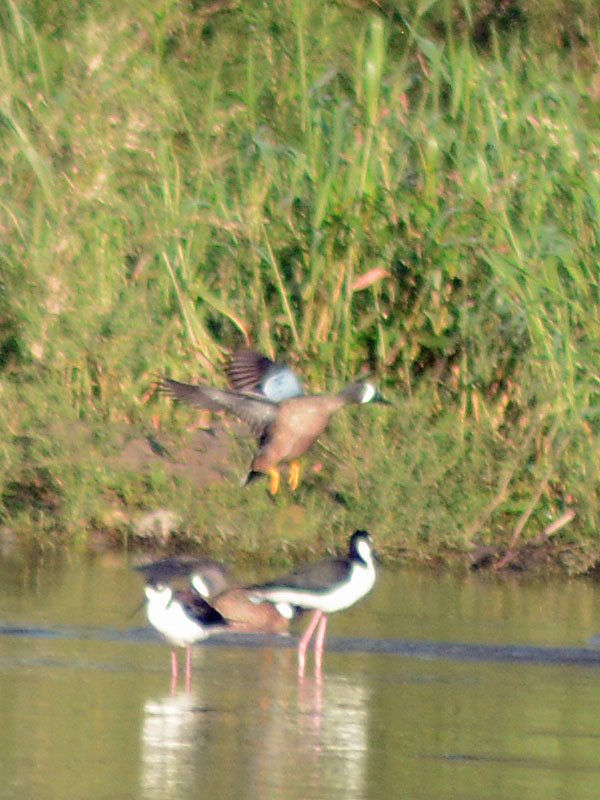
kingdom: Animalia
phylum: Chordata
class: Aves
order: Anseriformes
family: Anatidae
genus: Spatula
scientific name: Spatula discors
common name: Blue-winged teal
